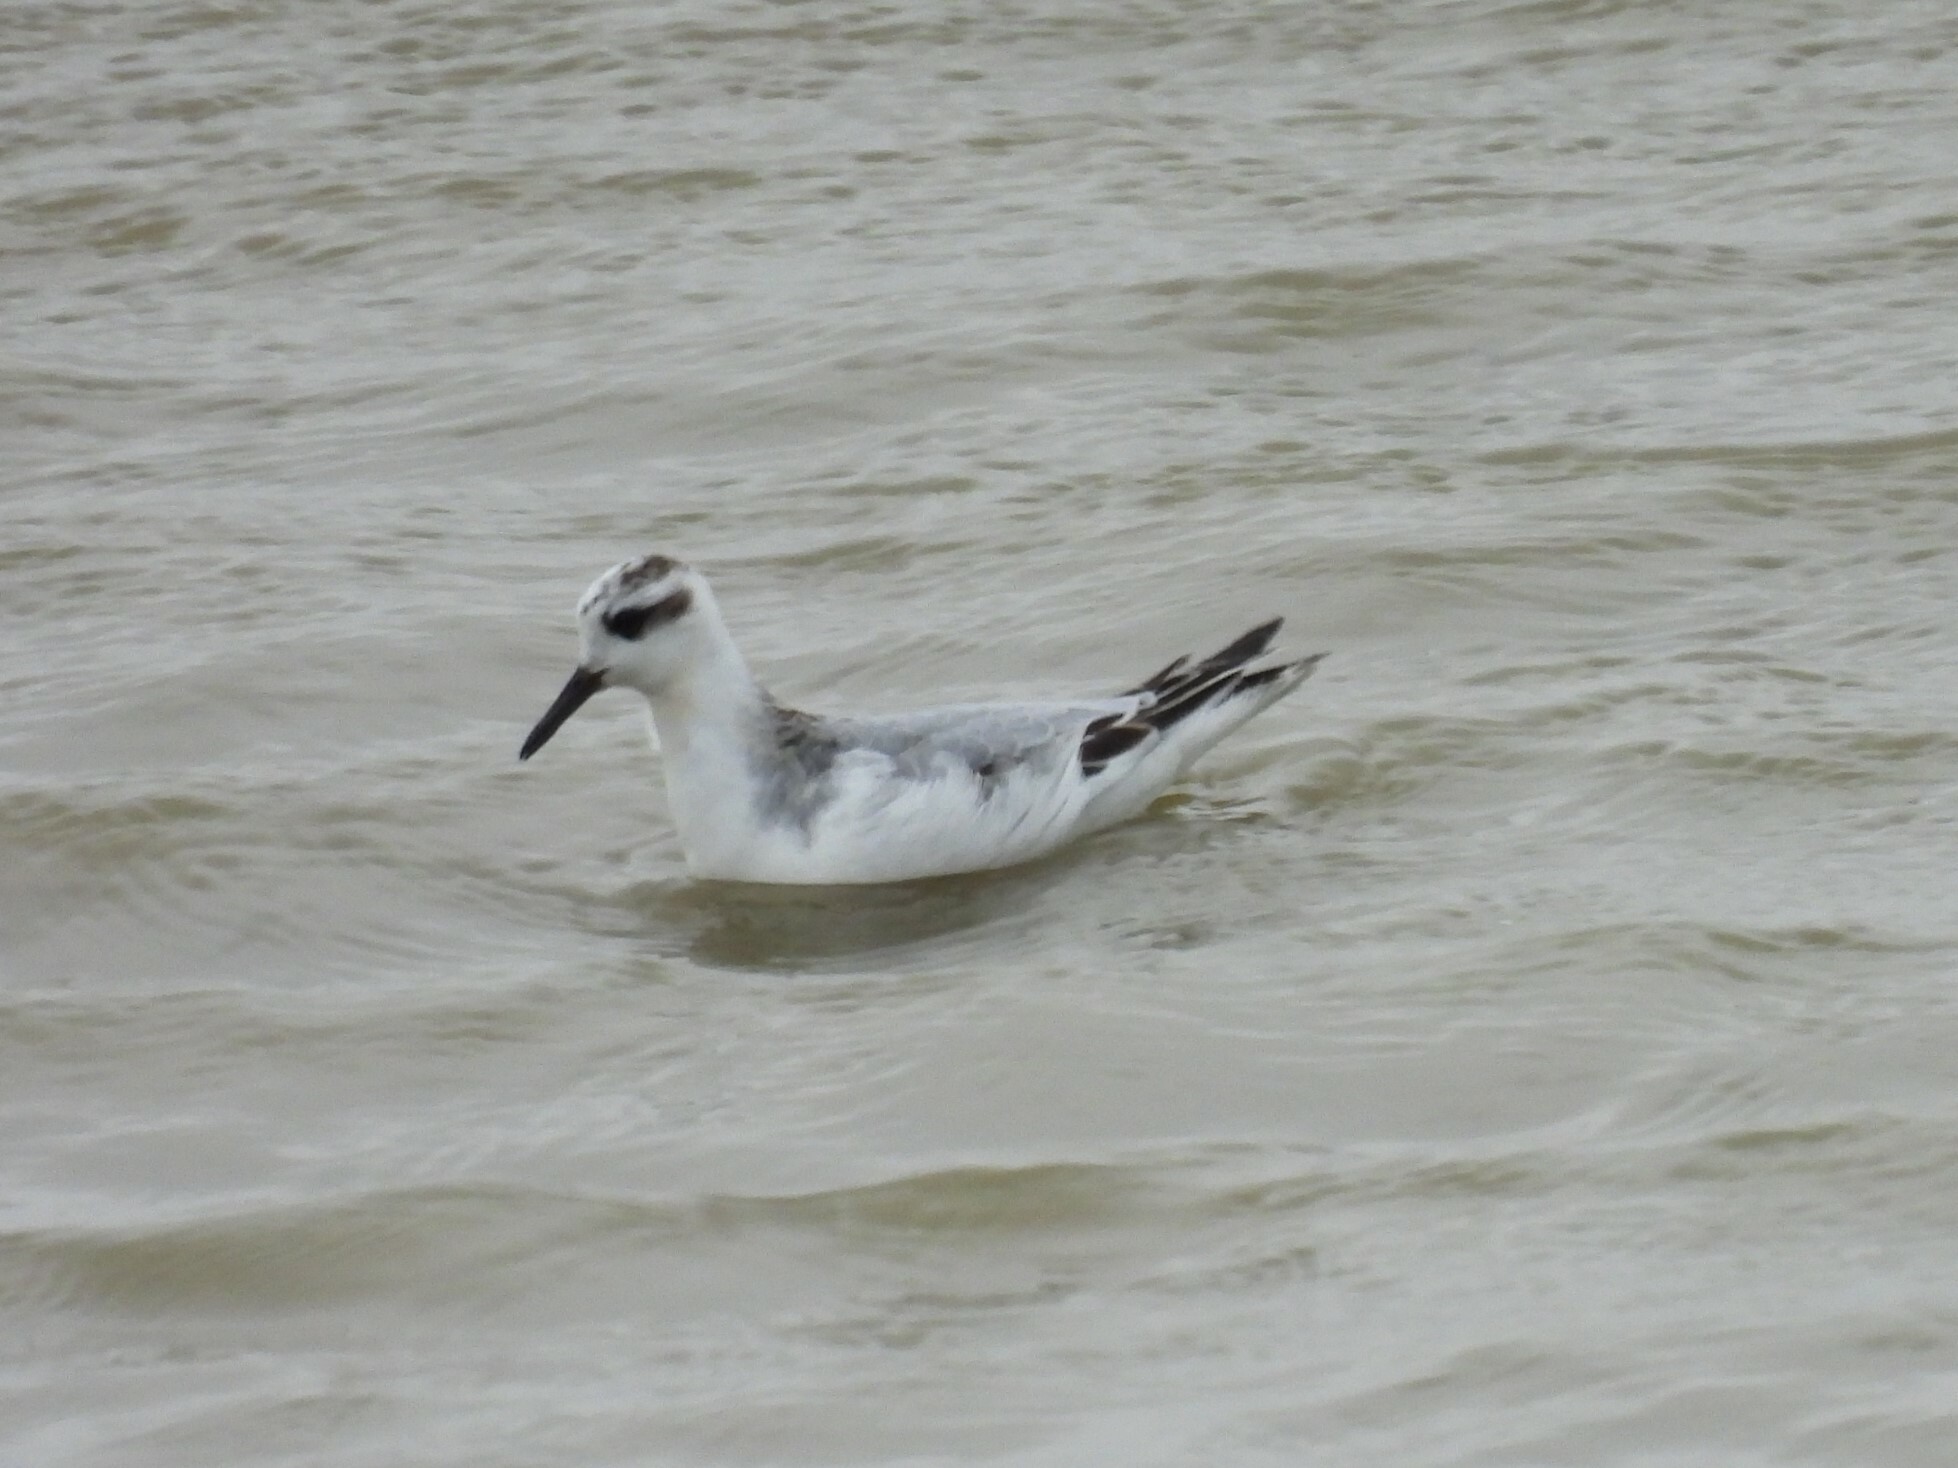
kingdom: Animalia
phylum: Chordata
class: Aves
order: Charadriiformes
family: Scolopacidae
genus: Phalaropus
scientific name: Phalaropus fulicarius
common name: Red phalarope
